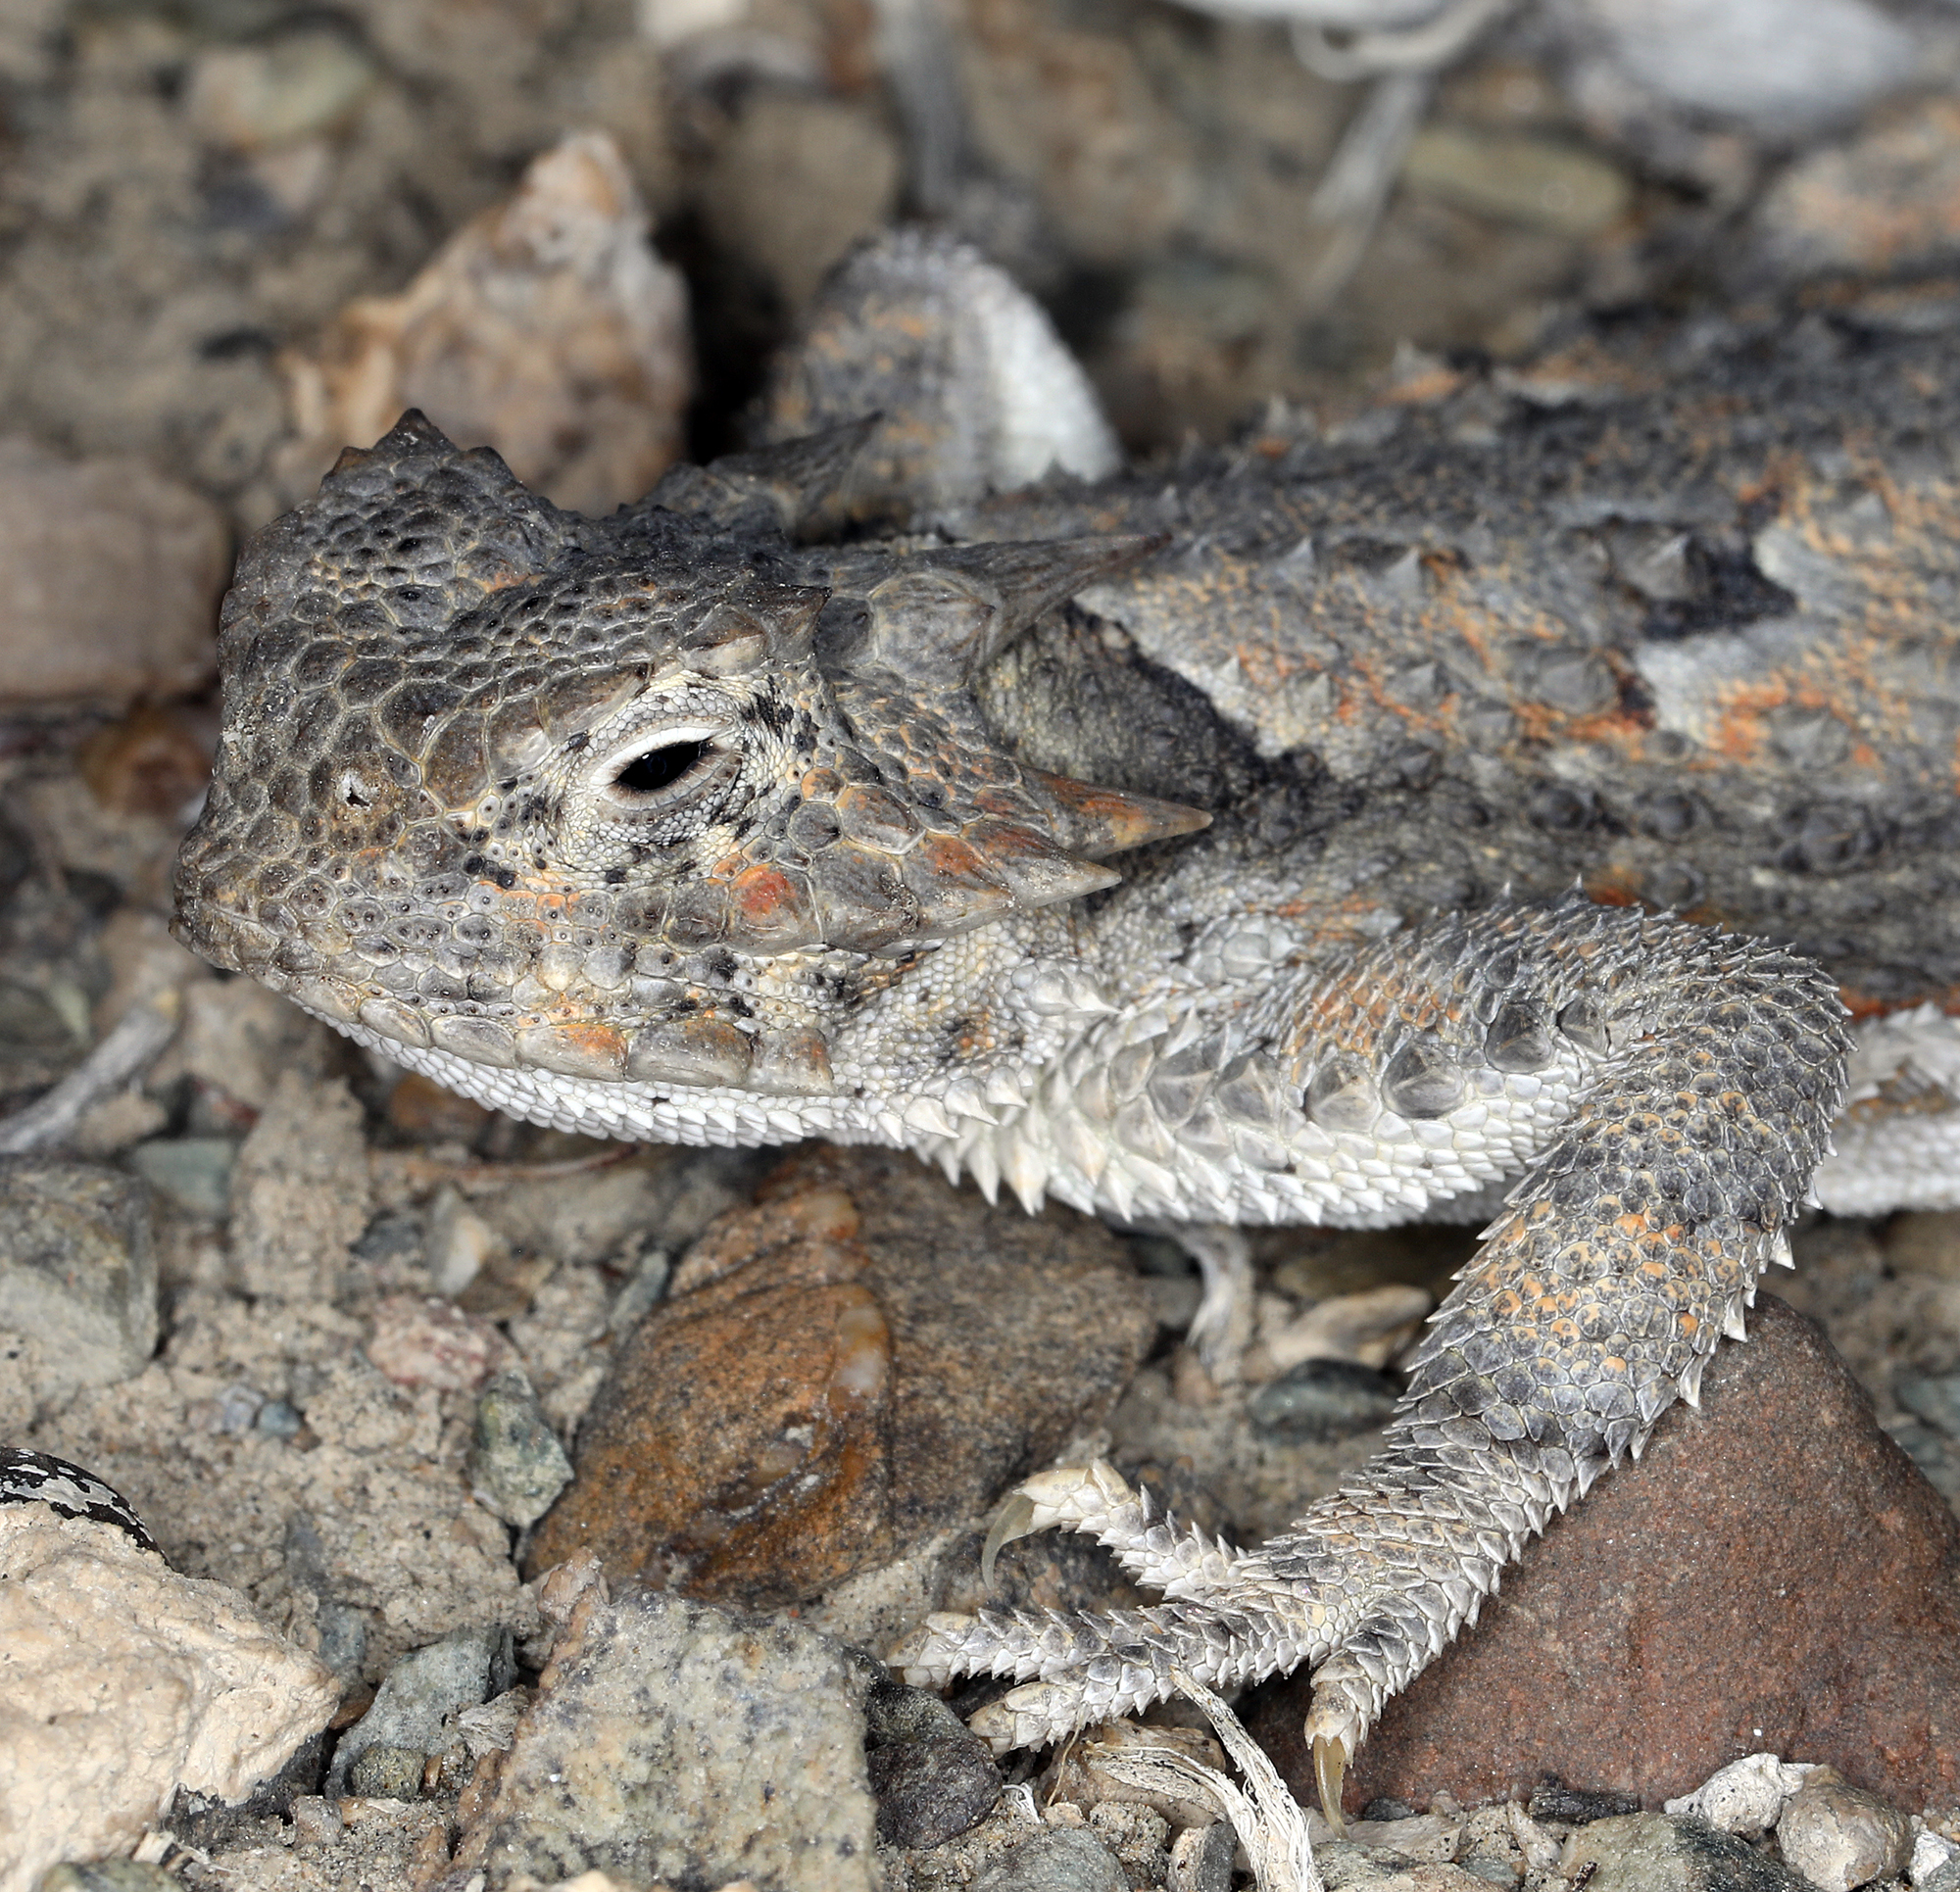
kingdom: Animalia
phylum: Chordata
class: Squamata
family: Phrynosomatidae
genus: Phrynosoma
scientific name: Phrynosoma platyrhinos
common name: Desert horned lizard
